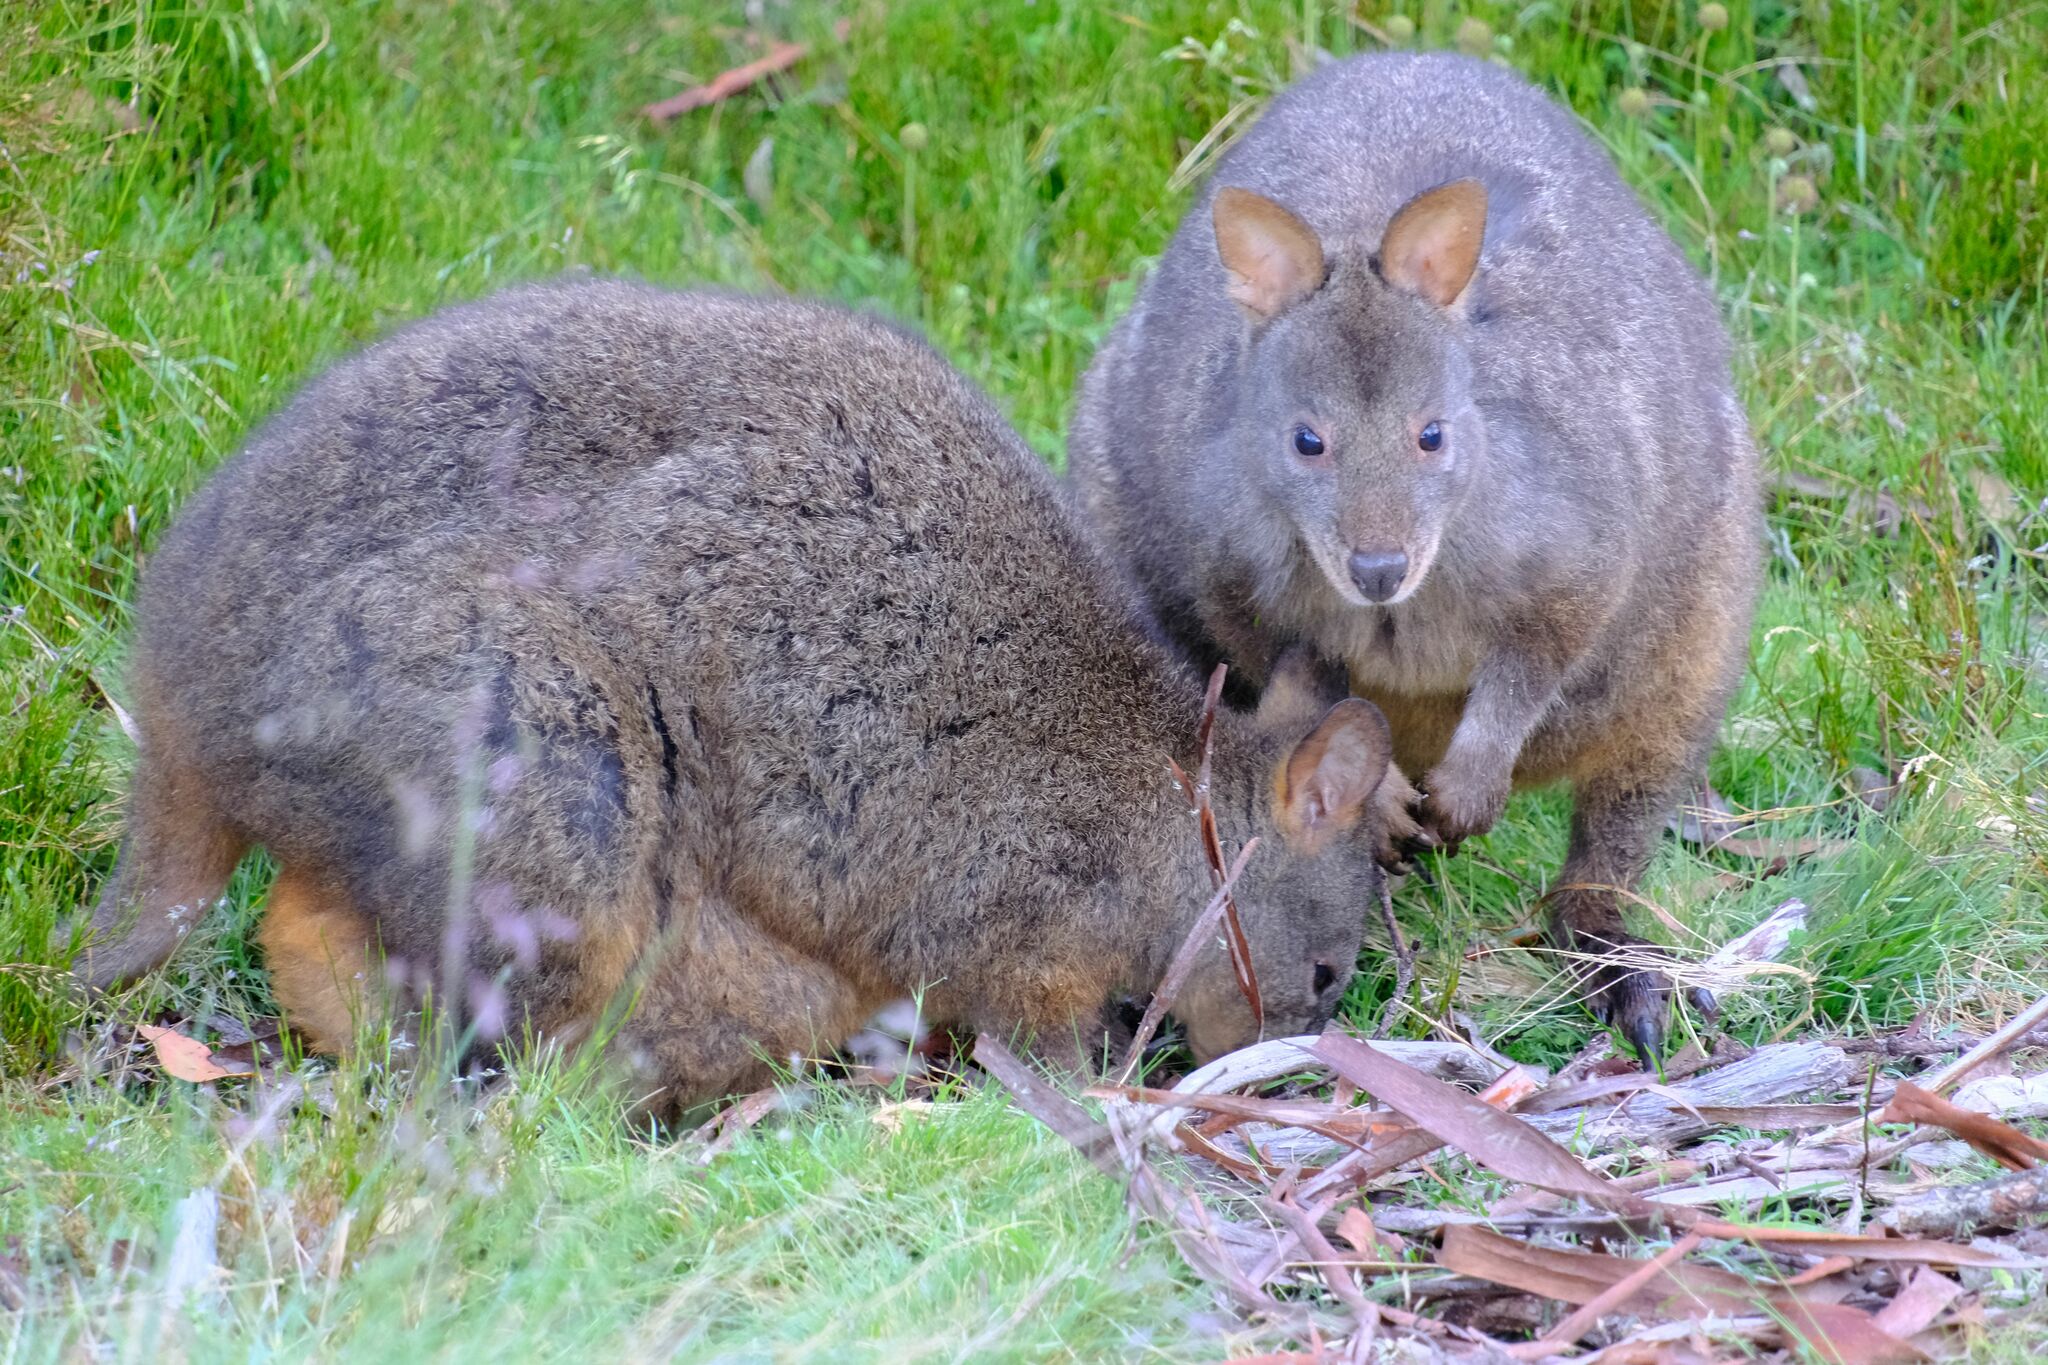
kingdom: Animalia
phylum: Chordata
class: Mammalia
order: Diprotodontia
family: Macropodidae
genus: Thylogale
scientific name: Thylogale billardierii
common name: Tasmanian pademelon
